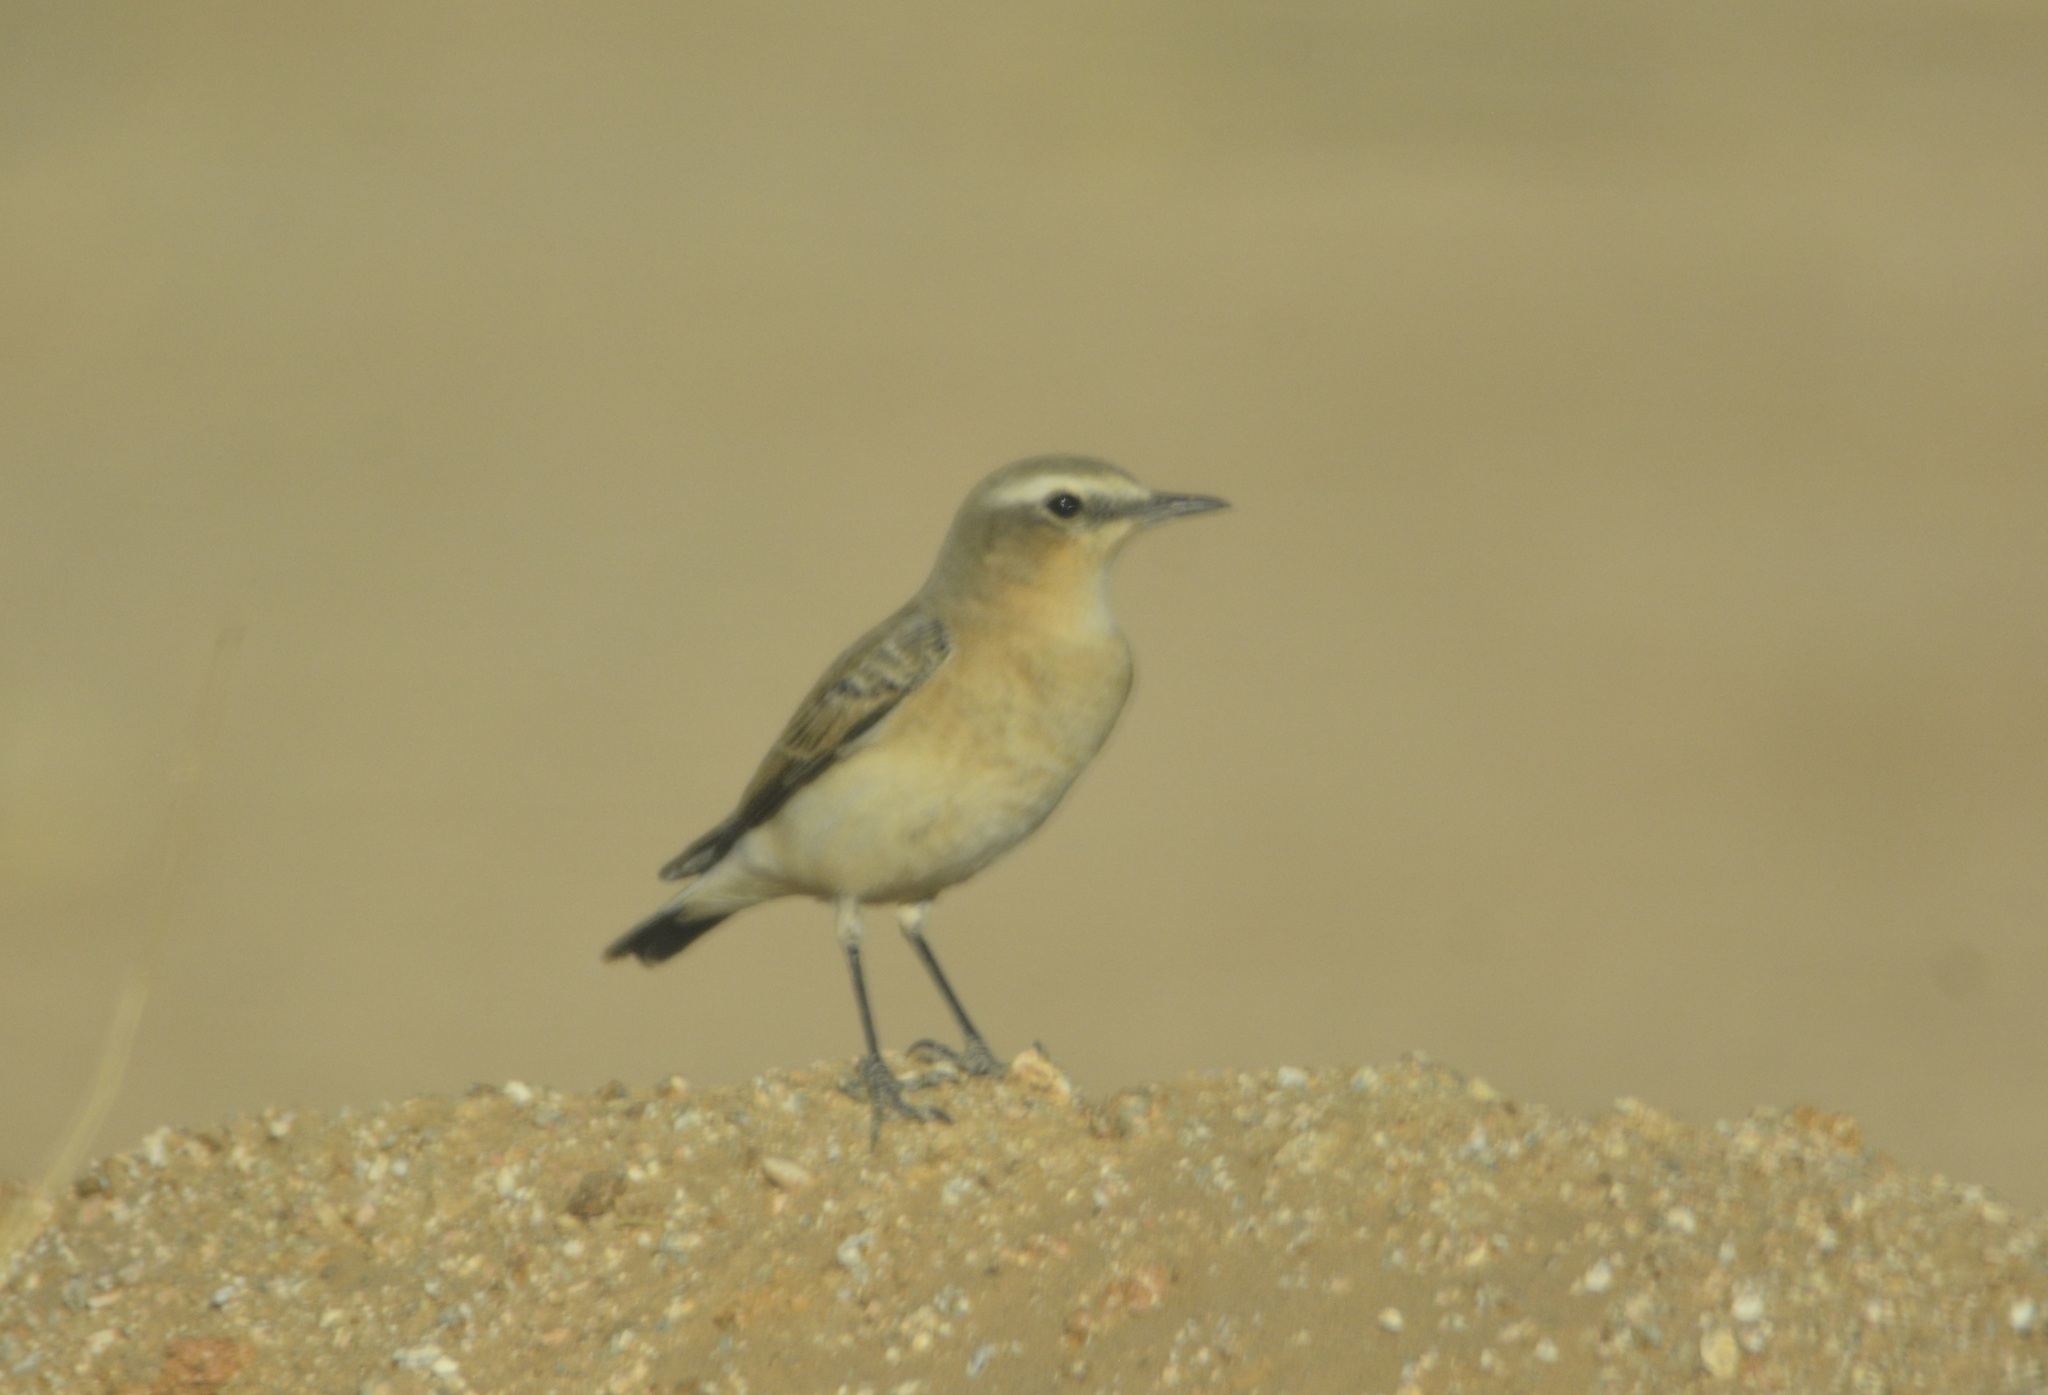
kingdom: Animalia
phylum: Chordata
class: Aves
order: Passeriformes
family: Muscicapidae
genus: Oenanthe
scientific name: Oenanthe isabellina
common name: Isabelline wheatear
